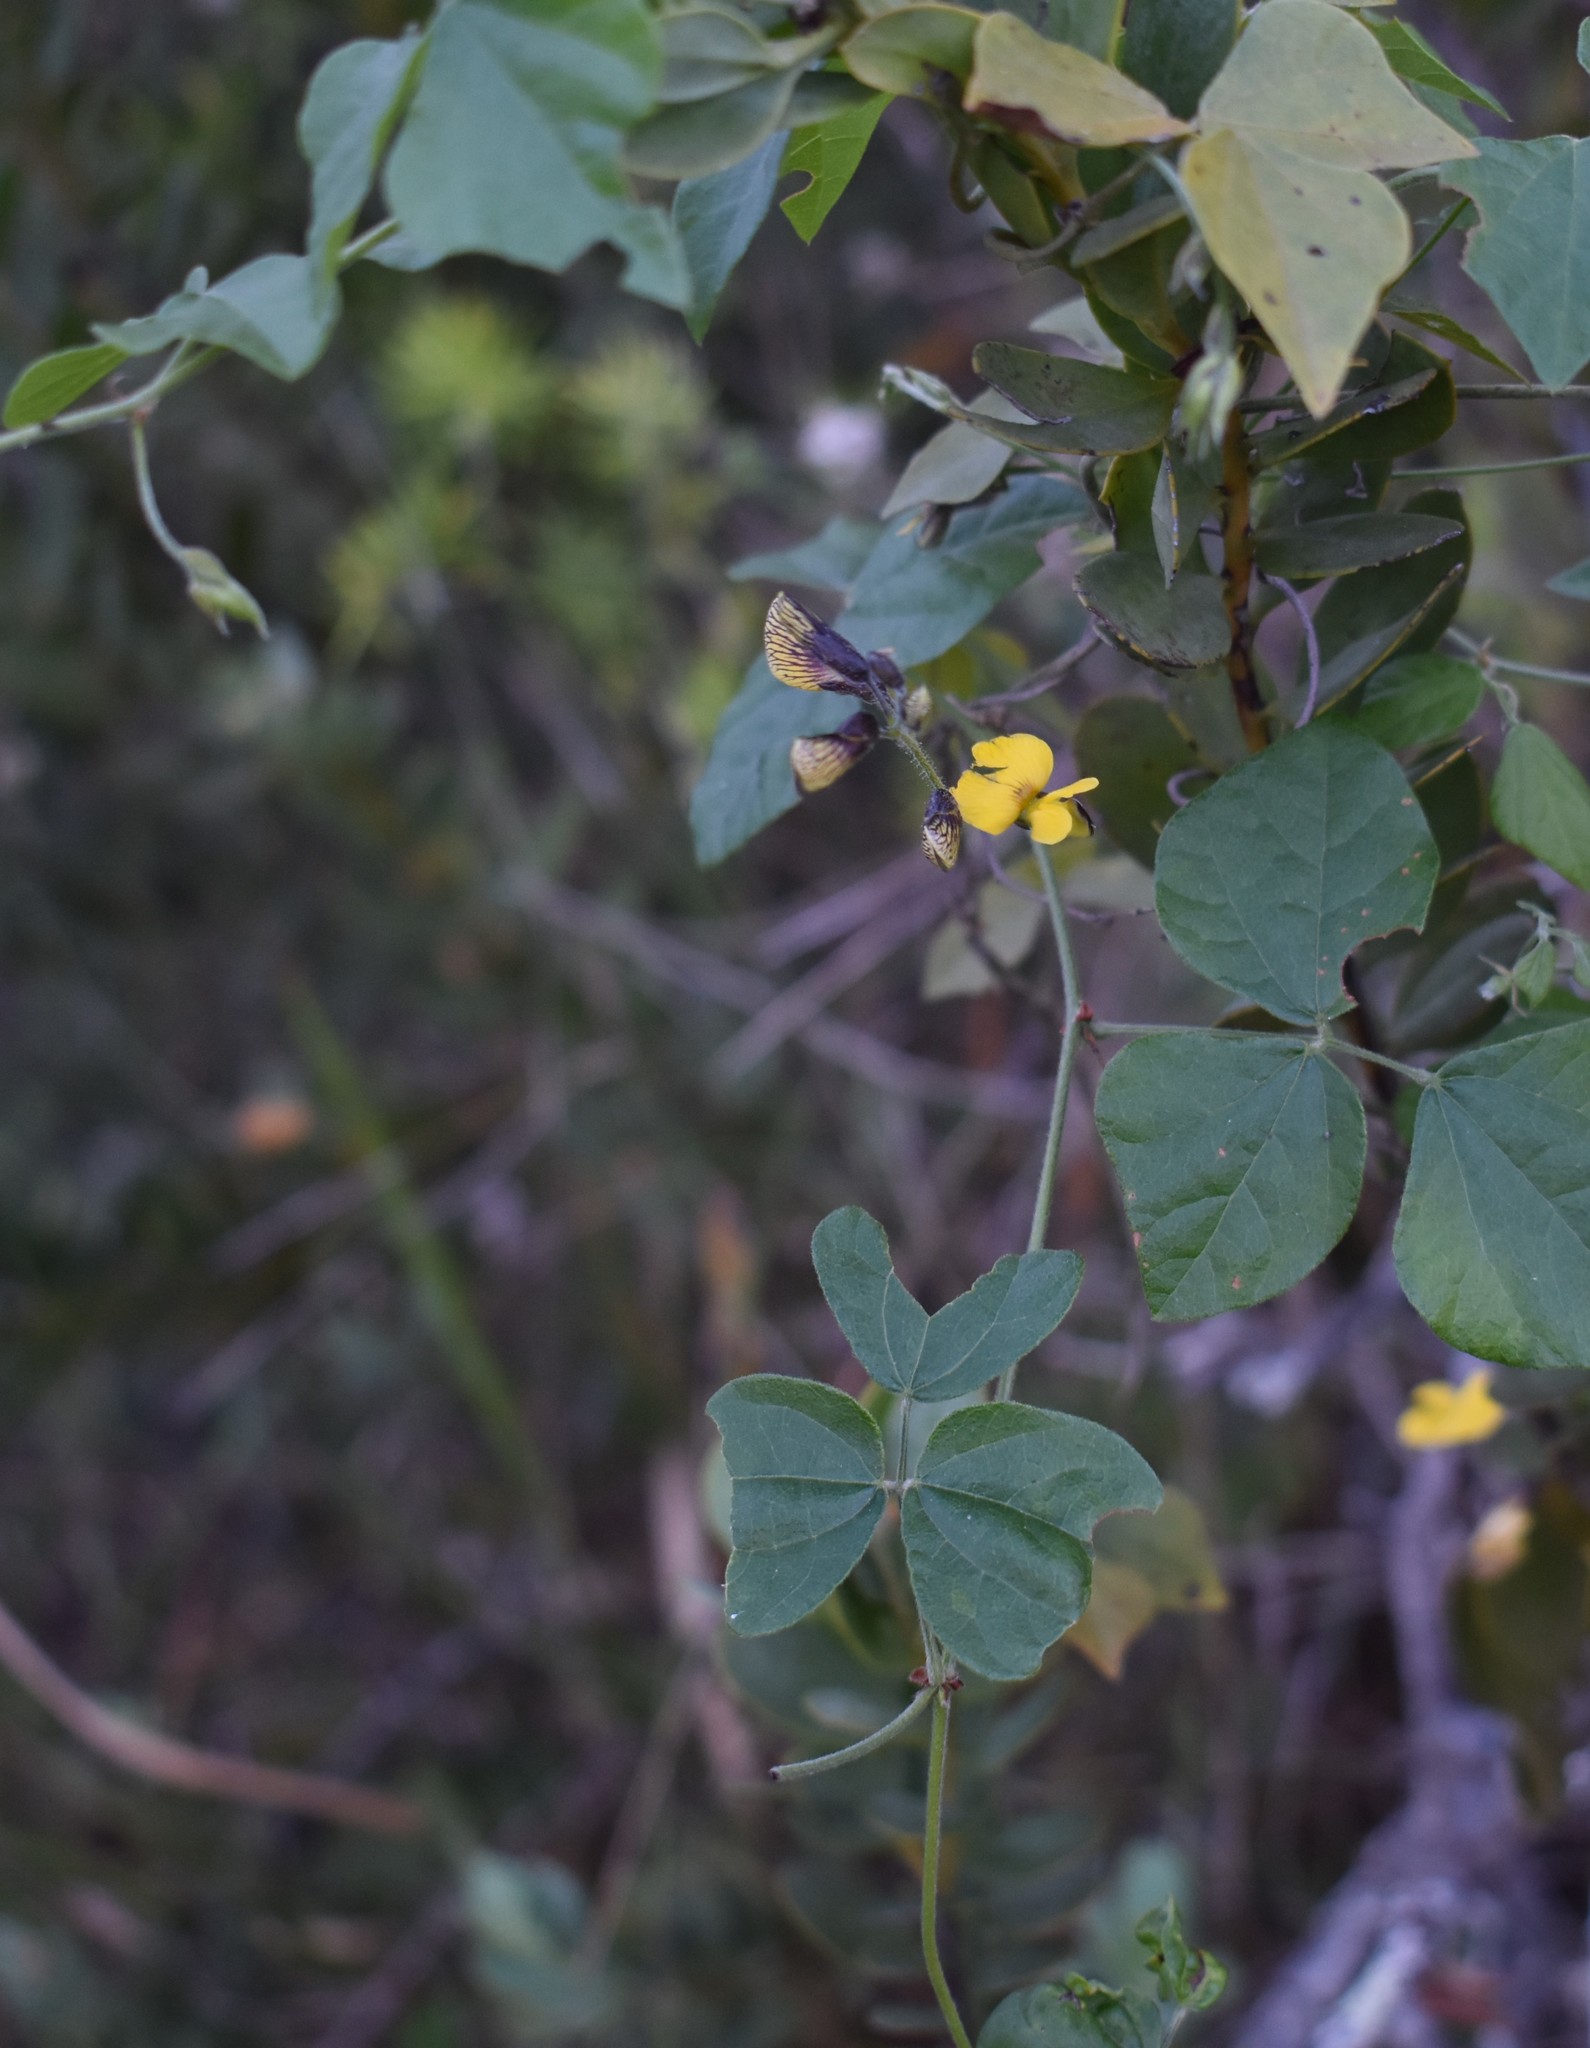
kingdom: Plantae
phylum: Tracheophyta
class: Magnoliopsida
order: Fabales
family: Fabaceae
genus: Rhynchosia
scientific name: Rhynchosia caribaea
